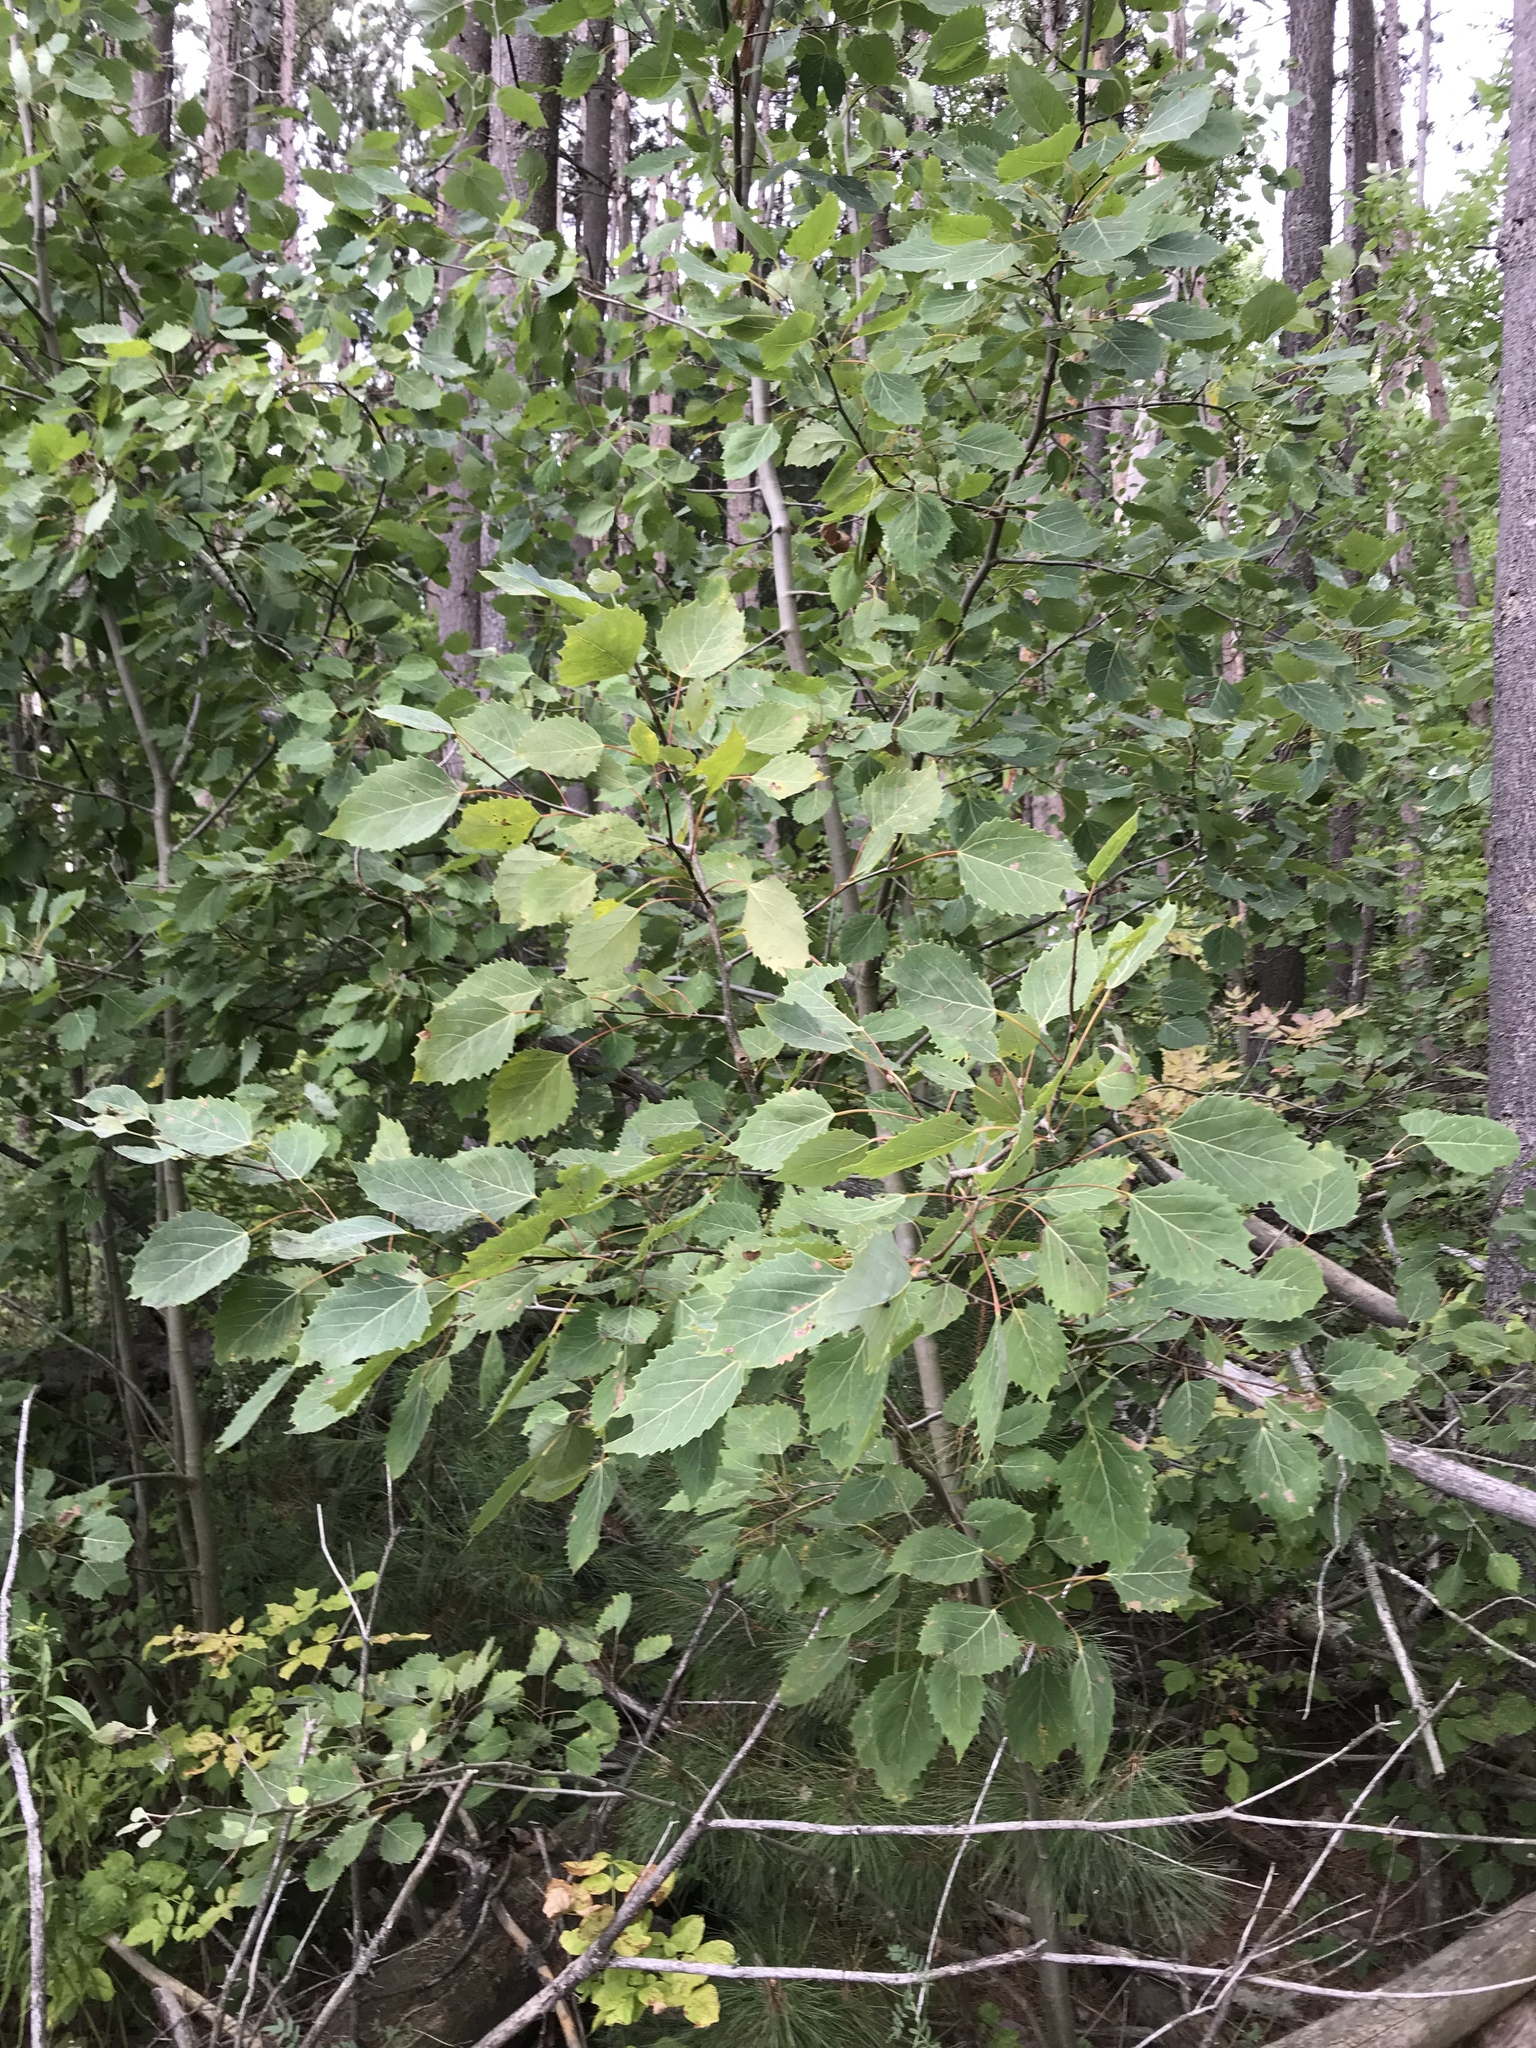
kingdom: Plantae
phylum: Tracheophyta
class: Magnoliopsida
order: Malpighiales
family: Salicaceae
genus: Populus
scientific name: Populus grandidentata
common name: Bigtooth aspen
